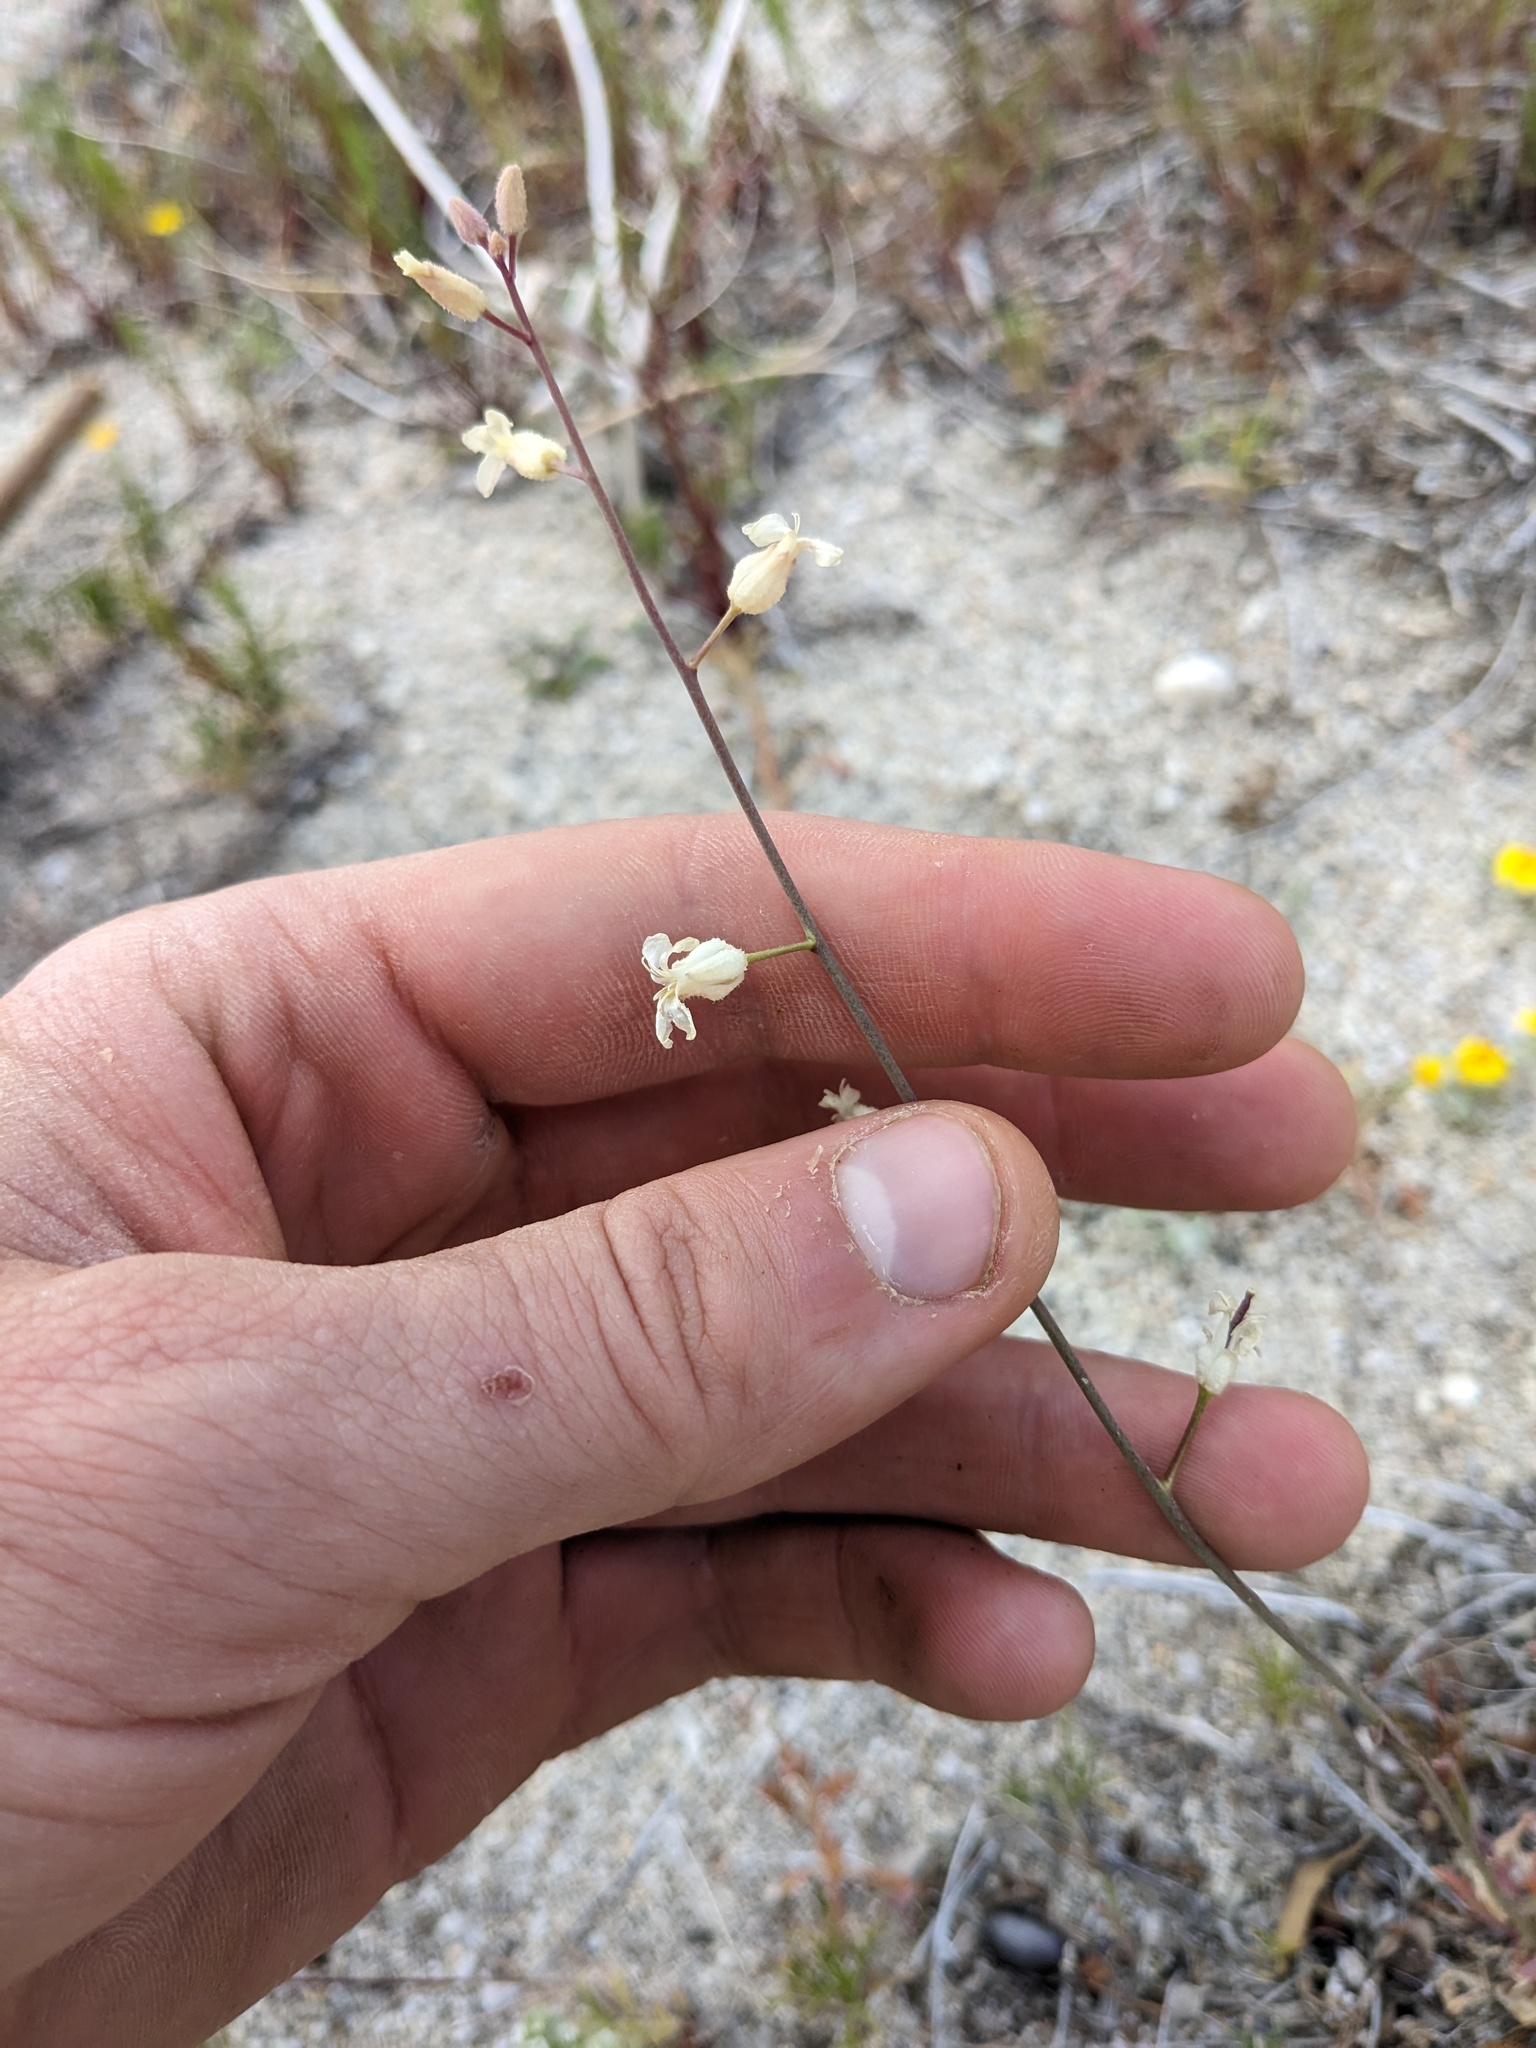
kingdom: Plantae
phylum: Tracheophyta
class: Magnoliopsida
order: Brassicales
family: Brassicaceae
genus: Streptanthus
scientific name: Streptanthus hallii
